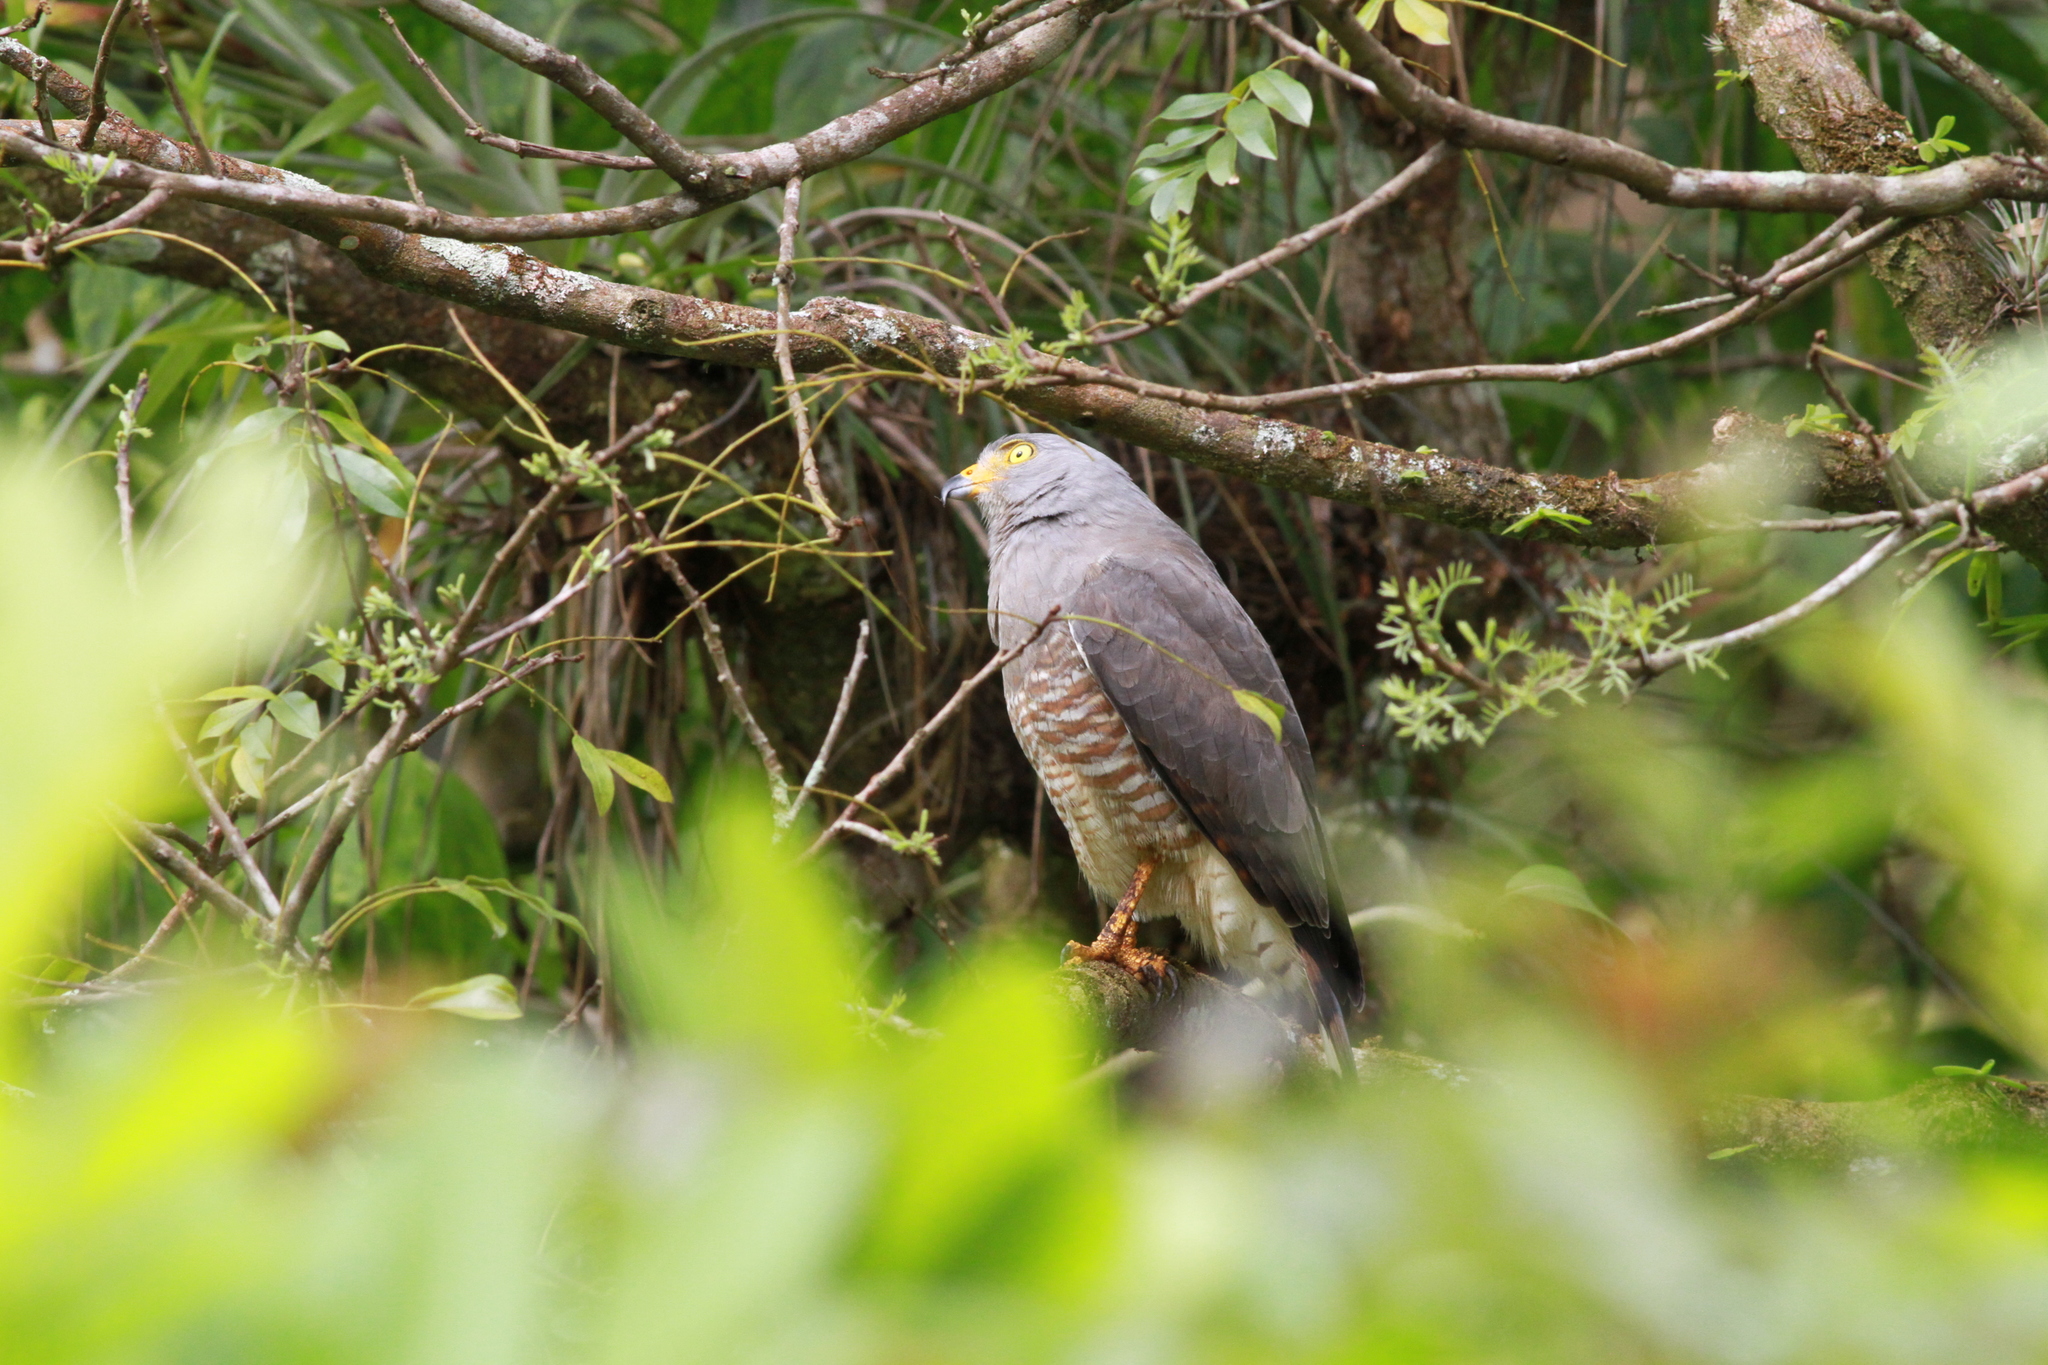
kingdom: Animalia
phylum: Chordata
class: Aves
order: Accipitriformes
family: Accipitridae
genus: Rupornis
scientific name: Rupornis magnirostris
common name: Roadside hawk
